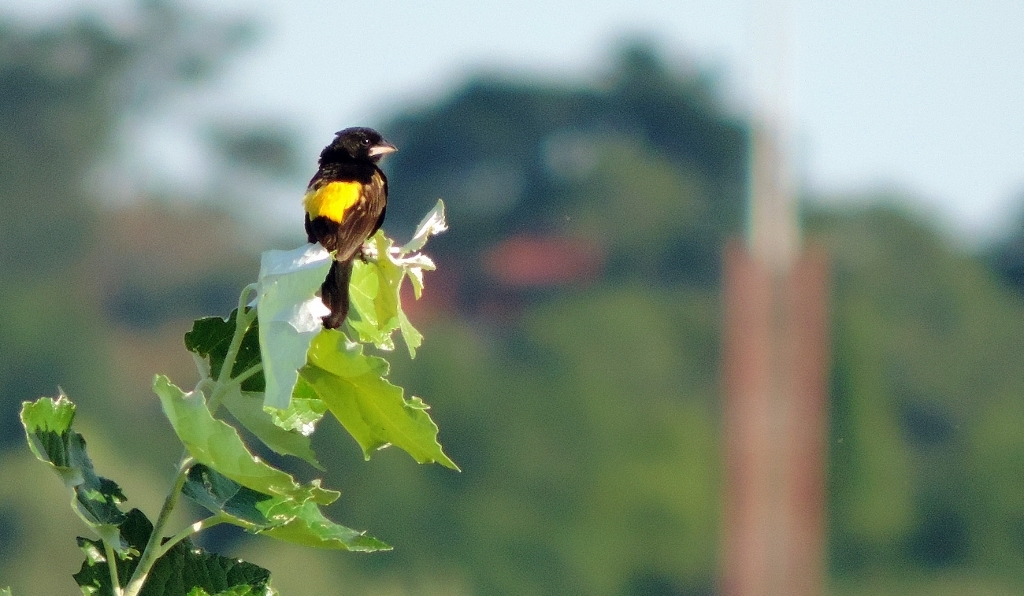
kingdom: Animalia
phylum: Chordata
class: Aves
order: Passeriformes
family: Ploceidae
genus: Euplectes
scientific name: Euplectes capensis
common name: Yellow bishop
